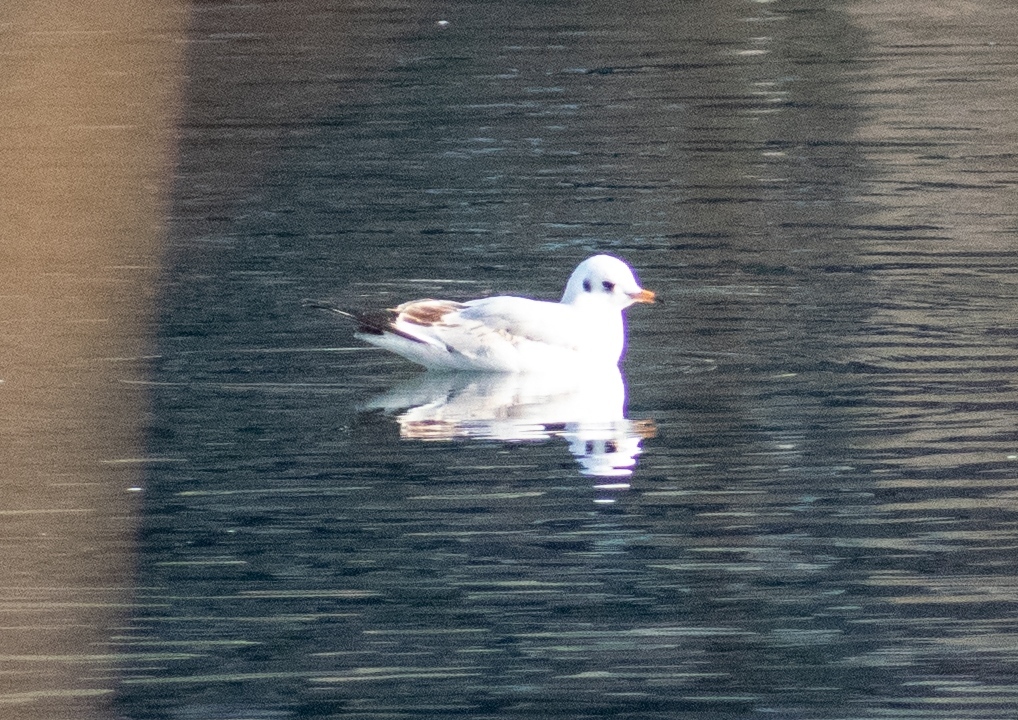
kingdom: Animalia
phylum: Chordata
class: Aves
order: Charadriiformes
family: Laridae
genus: Chroicocephalus
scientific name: Chroicocephalus ridibundus
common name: Black-headed gull
